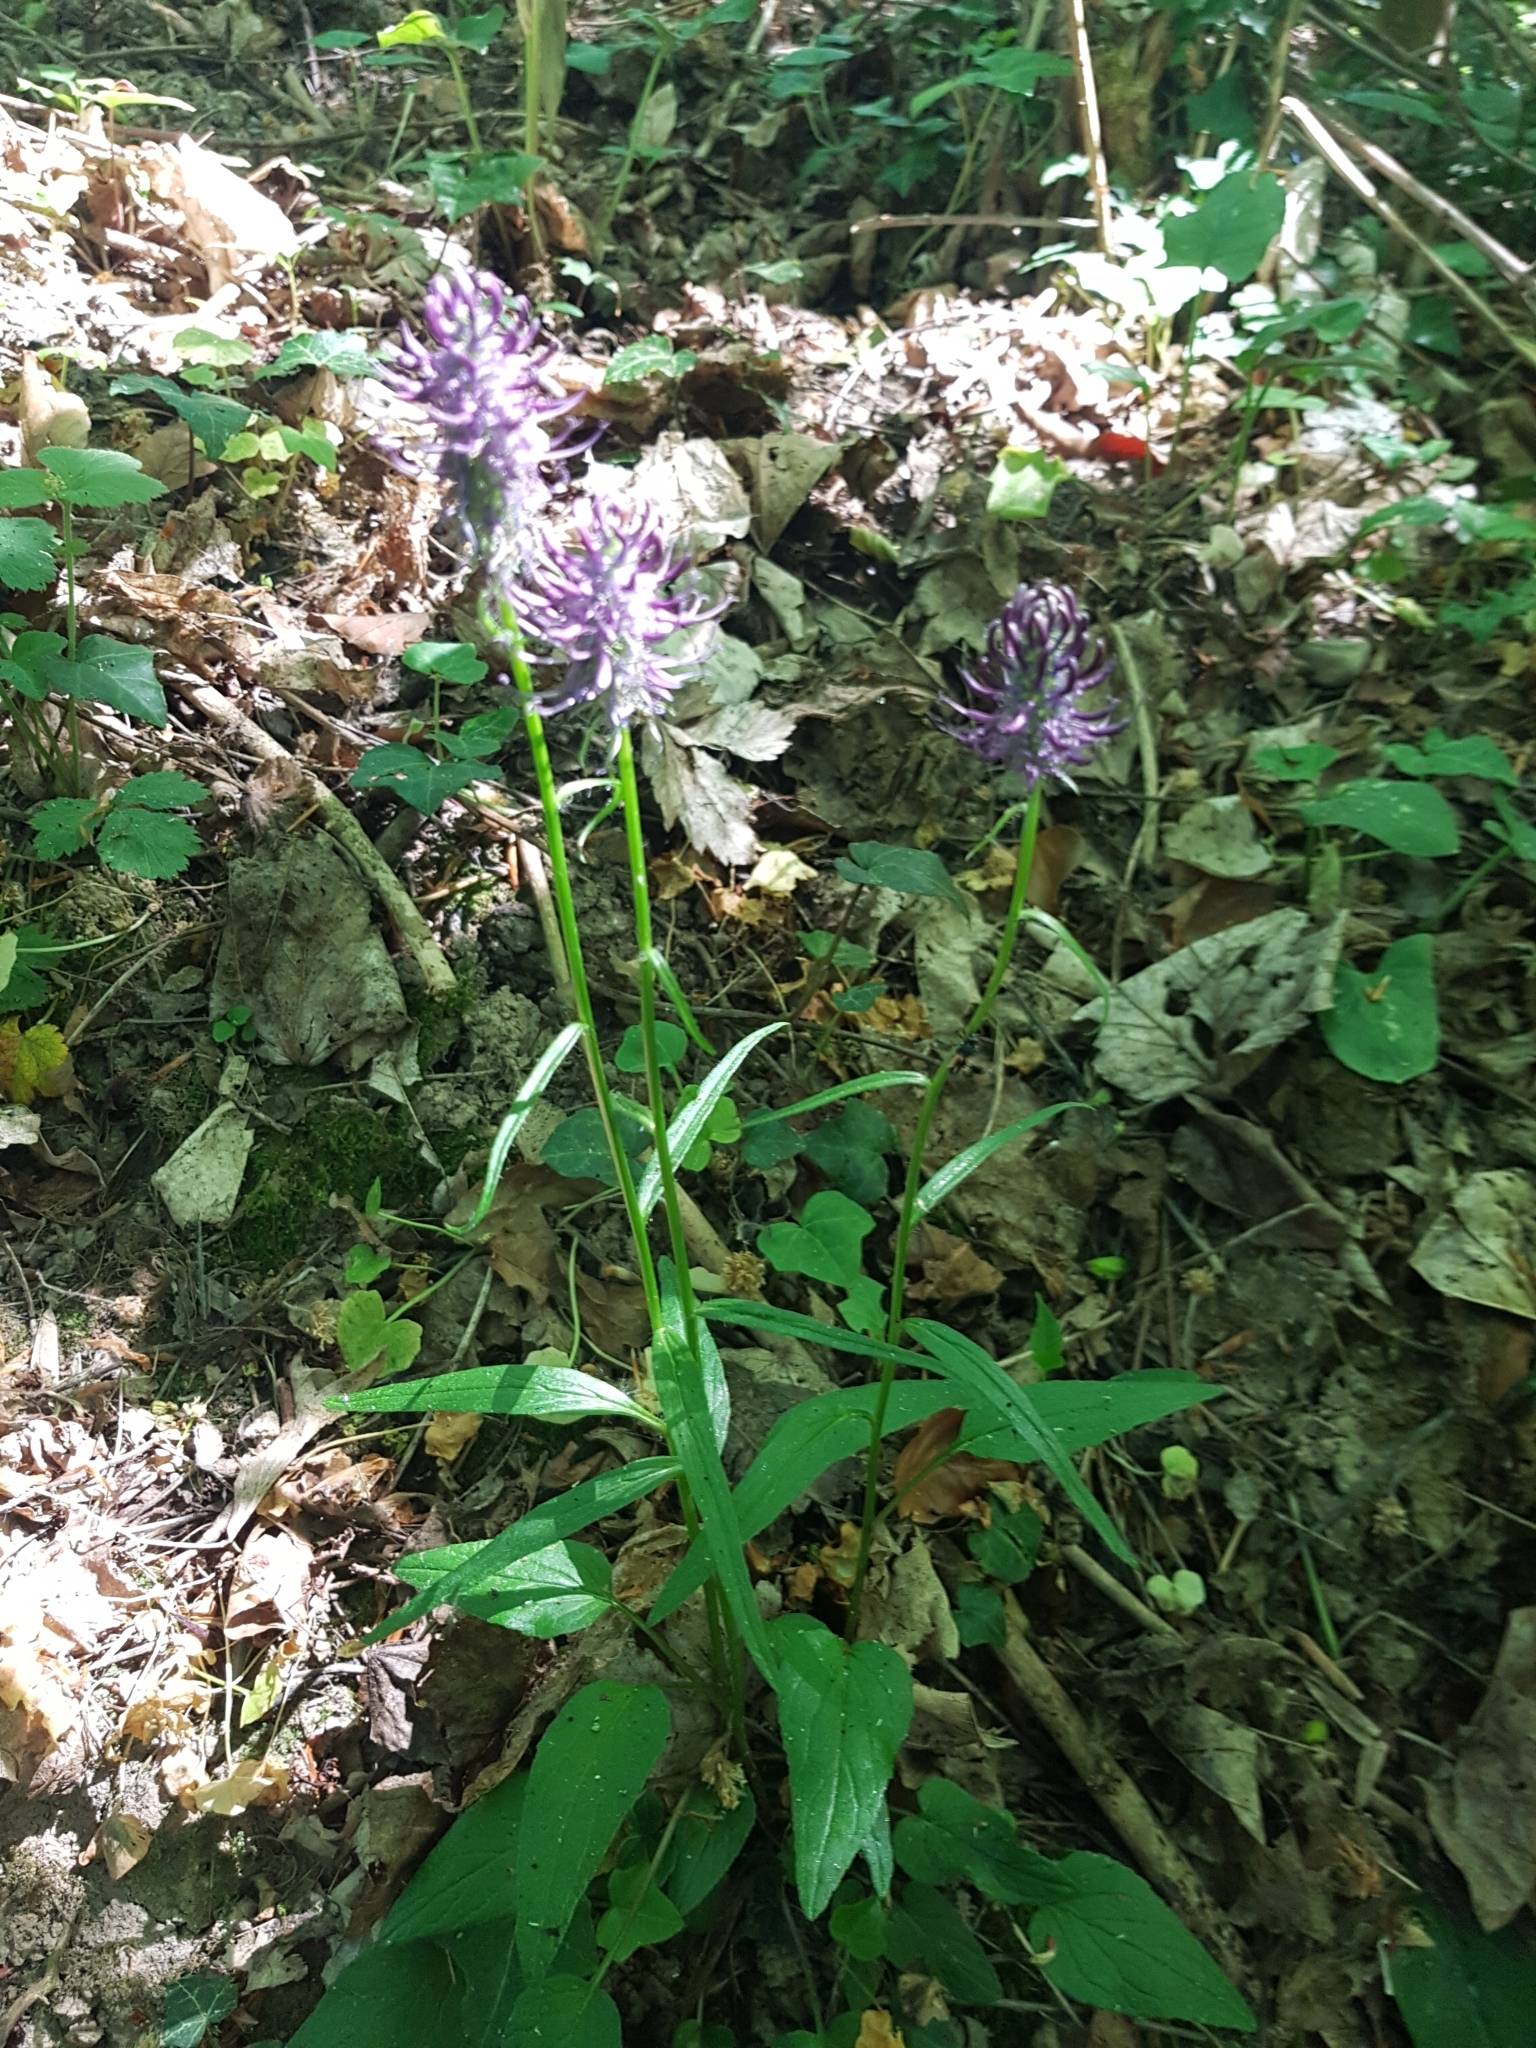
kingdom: Plantae
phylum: Tracheophyta
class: Magnoliopsida
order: Asterales
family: Campanulaceae
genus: Phyteuma
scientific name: Phyteuma nigrum
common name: Black rampion
